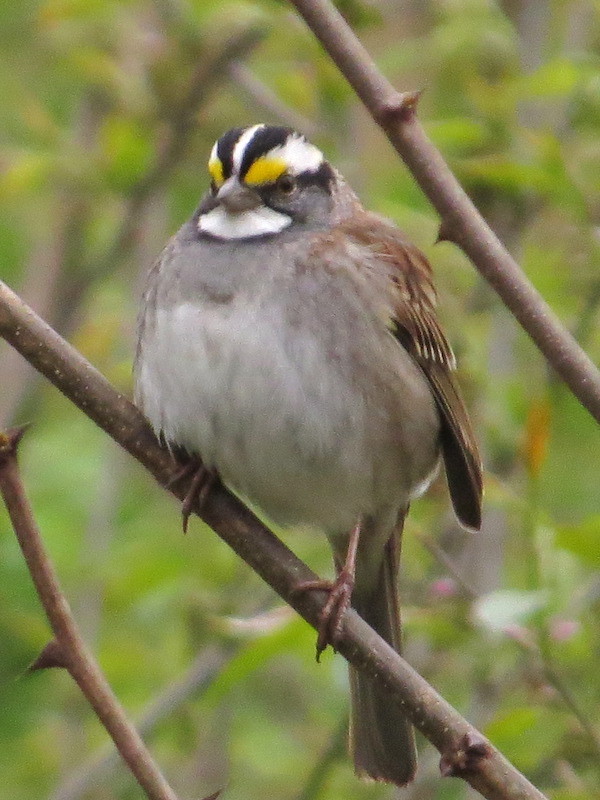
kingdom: Animalia
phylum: Chordata
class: Aves
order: Passeriformes
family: Passerellidae
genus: Zonotrichia
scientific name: Zonotrichia albicollis
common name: White-throated sparrow
